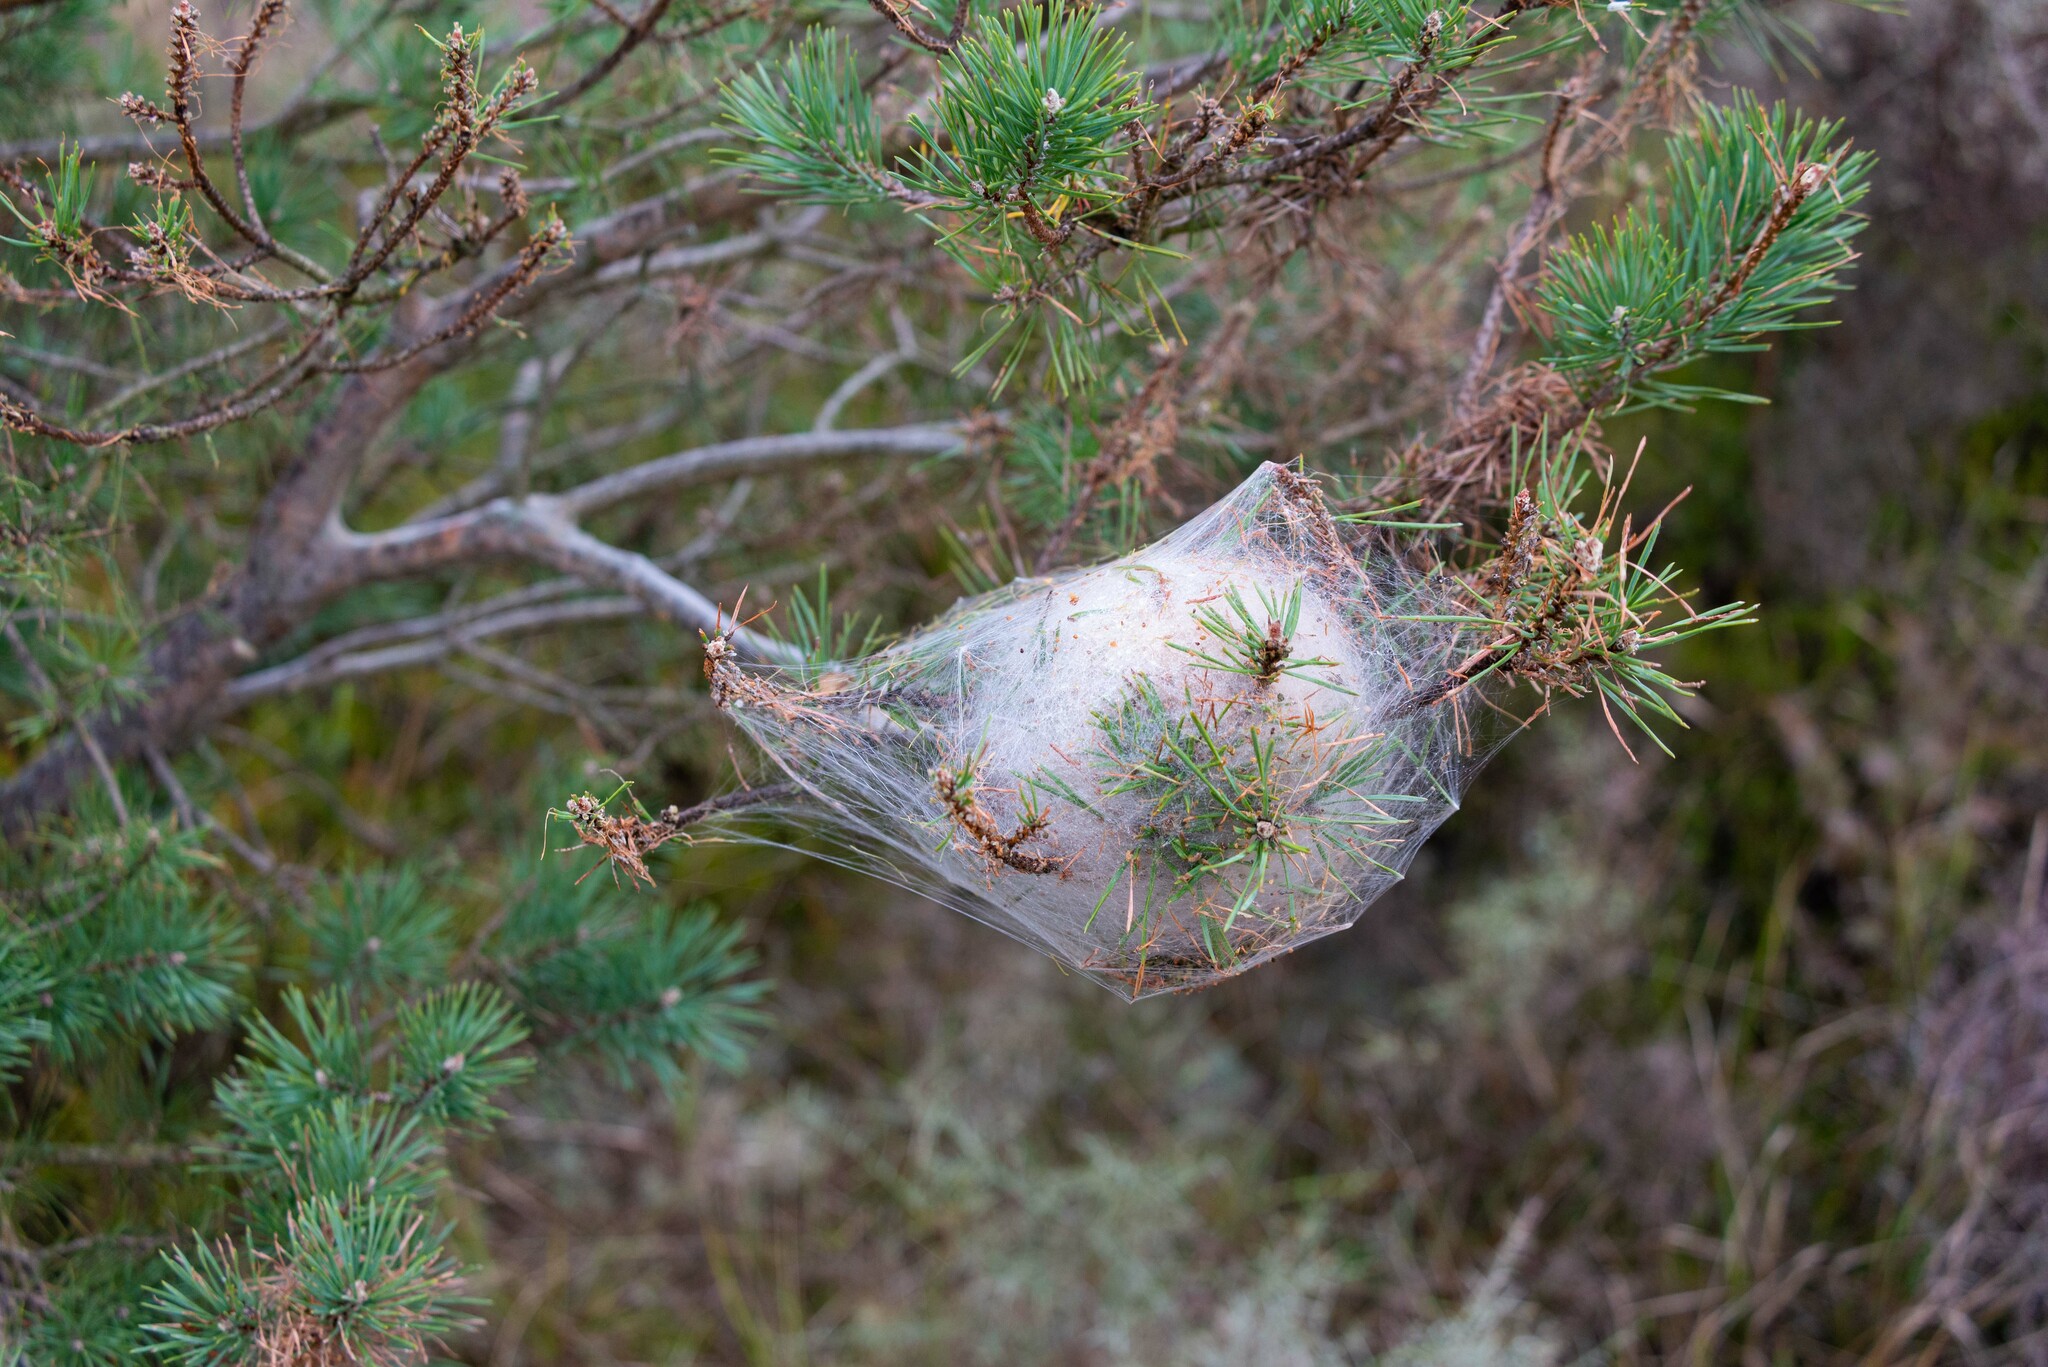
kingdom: Animalia
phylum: Arthropoda
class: Insecta
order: Lepidoptera
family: Notodontidae
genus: Thaumetopoea
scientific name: Thaumetopoea pityocampa
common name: Pine processionary
